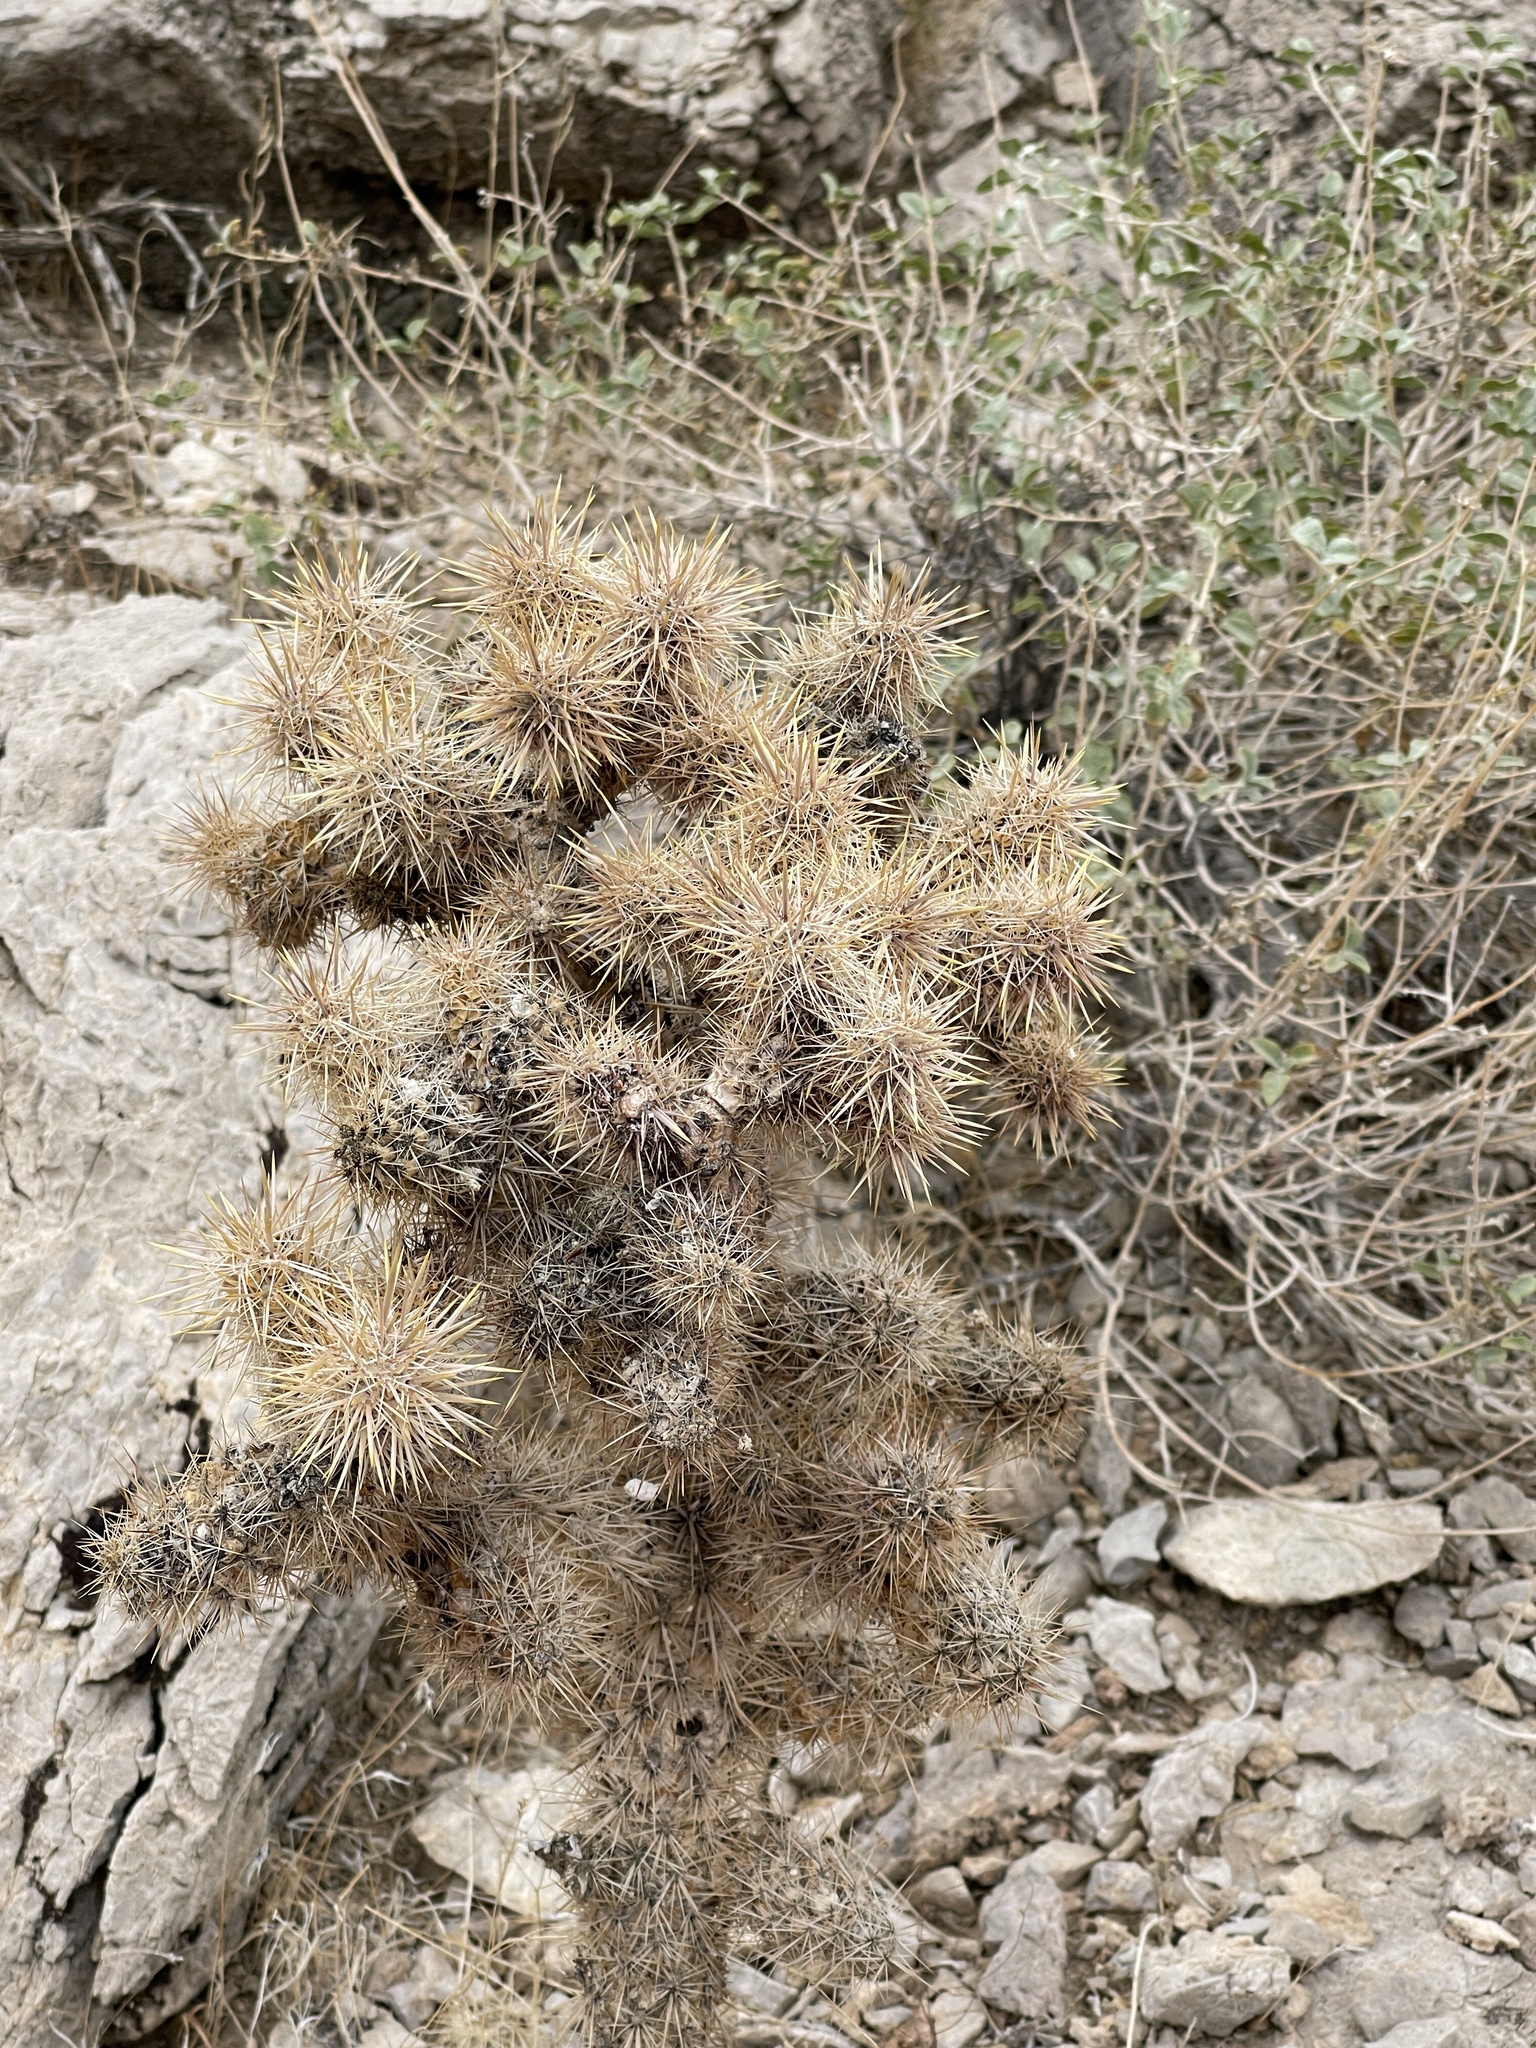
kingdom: Plantae
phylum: Tracheophyta
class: Magnoliopsida
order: Caryophyllales
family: Cactaceae
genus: Cylindropuntia
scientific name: Cylindropuntia echinocarpa
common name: Ground cholla
